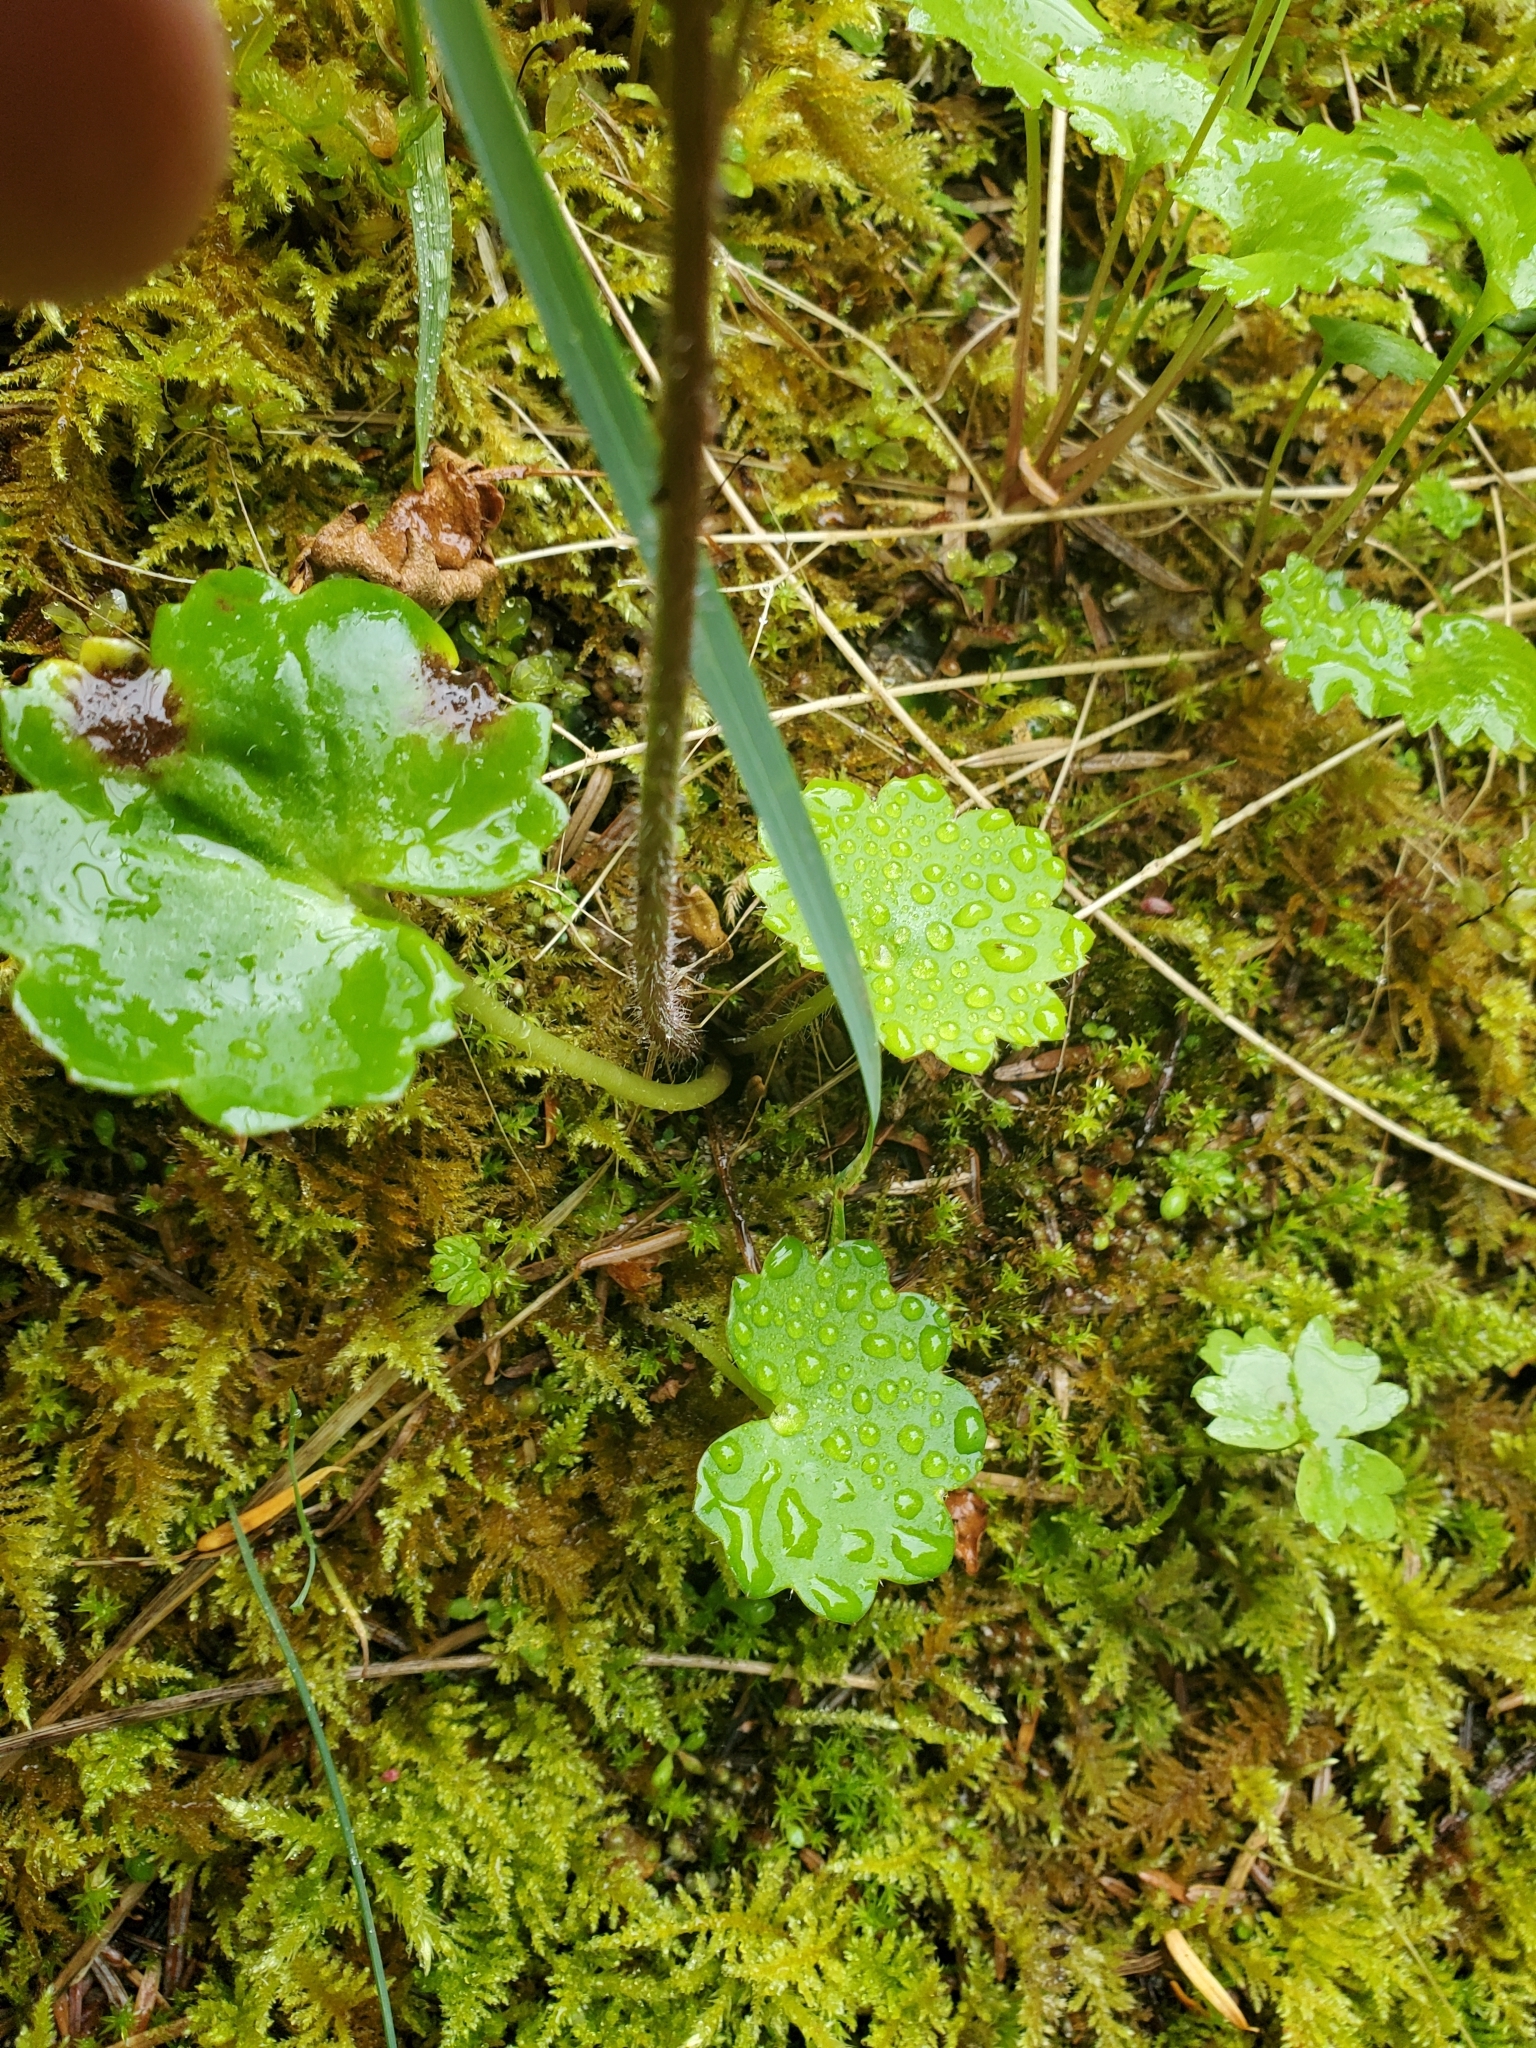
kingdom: Plantae
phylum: Tracheophyta
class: Magnoliopsida
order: Saxifragales
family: Saxifragaceae
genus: Micranthes
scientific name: Micranthes mertensiana
